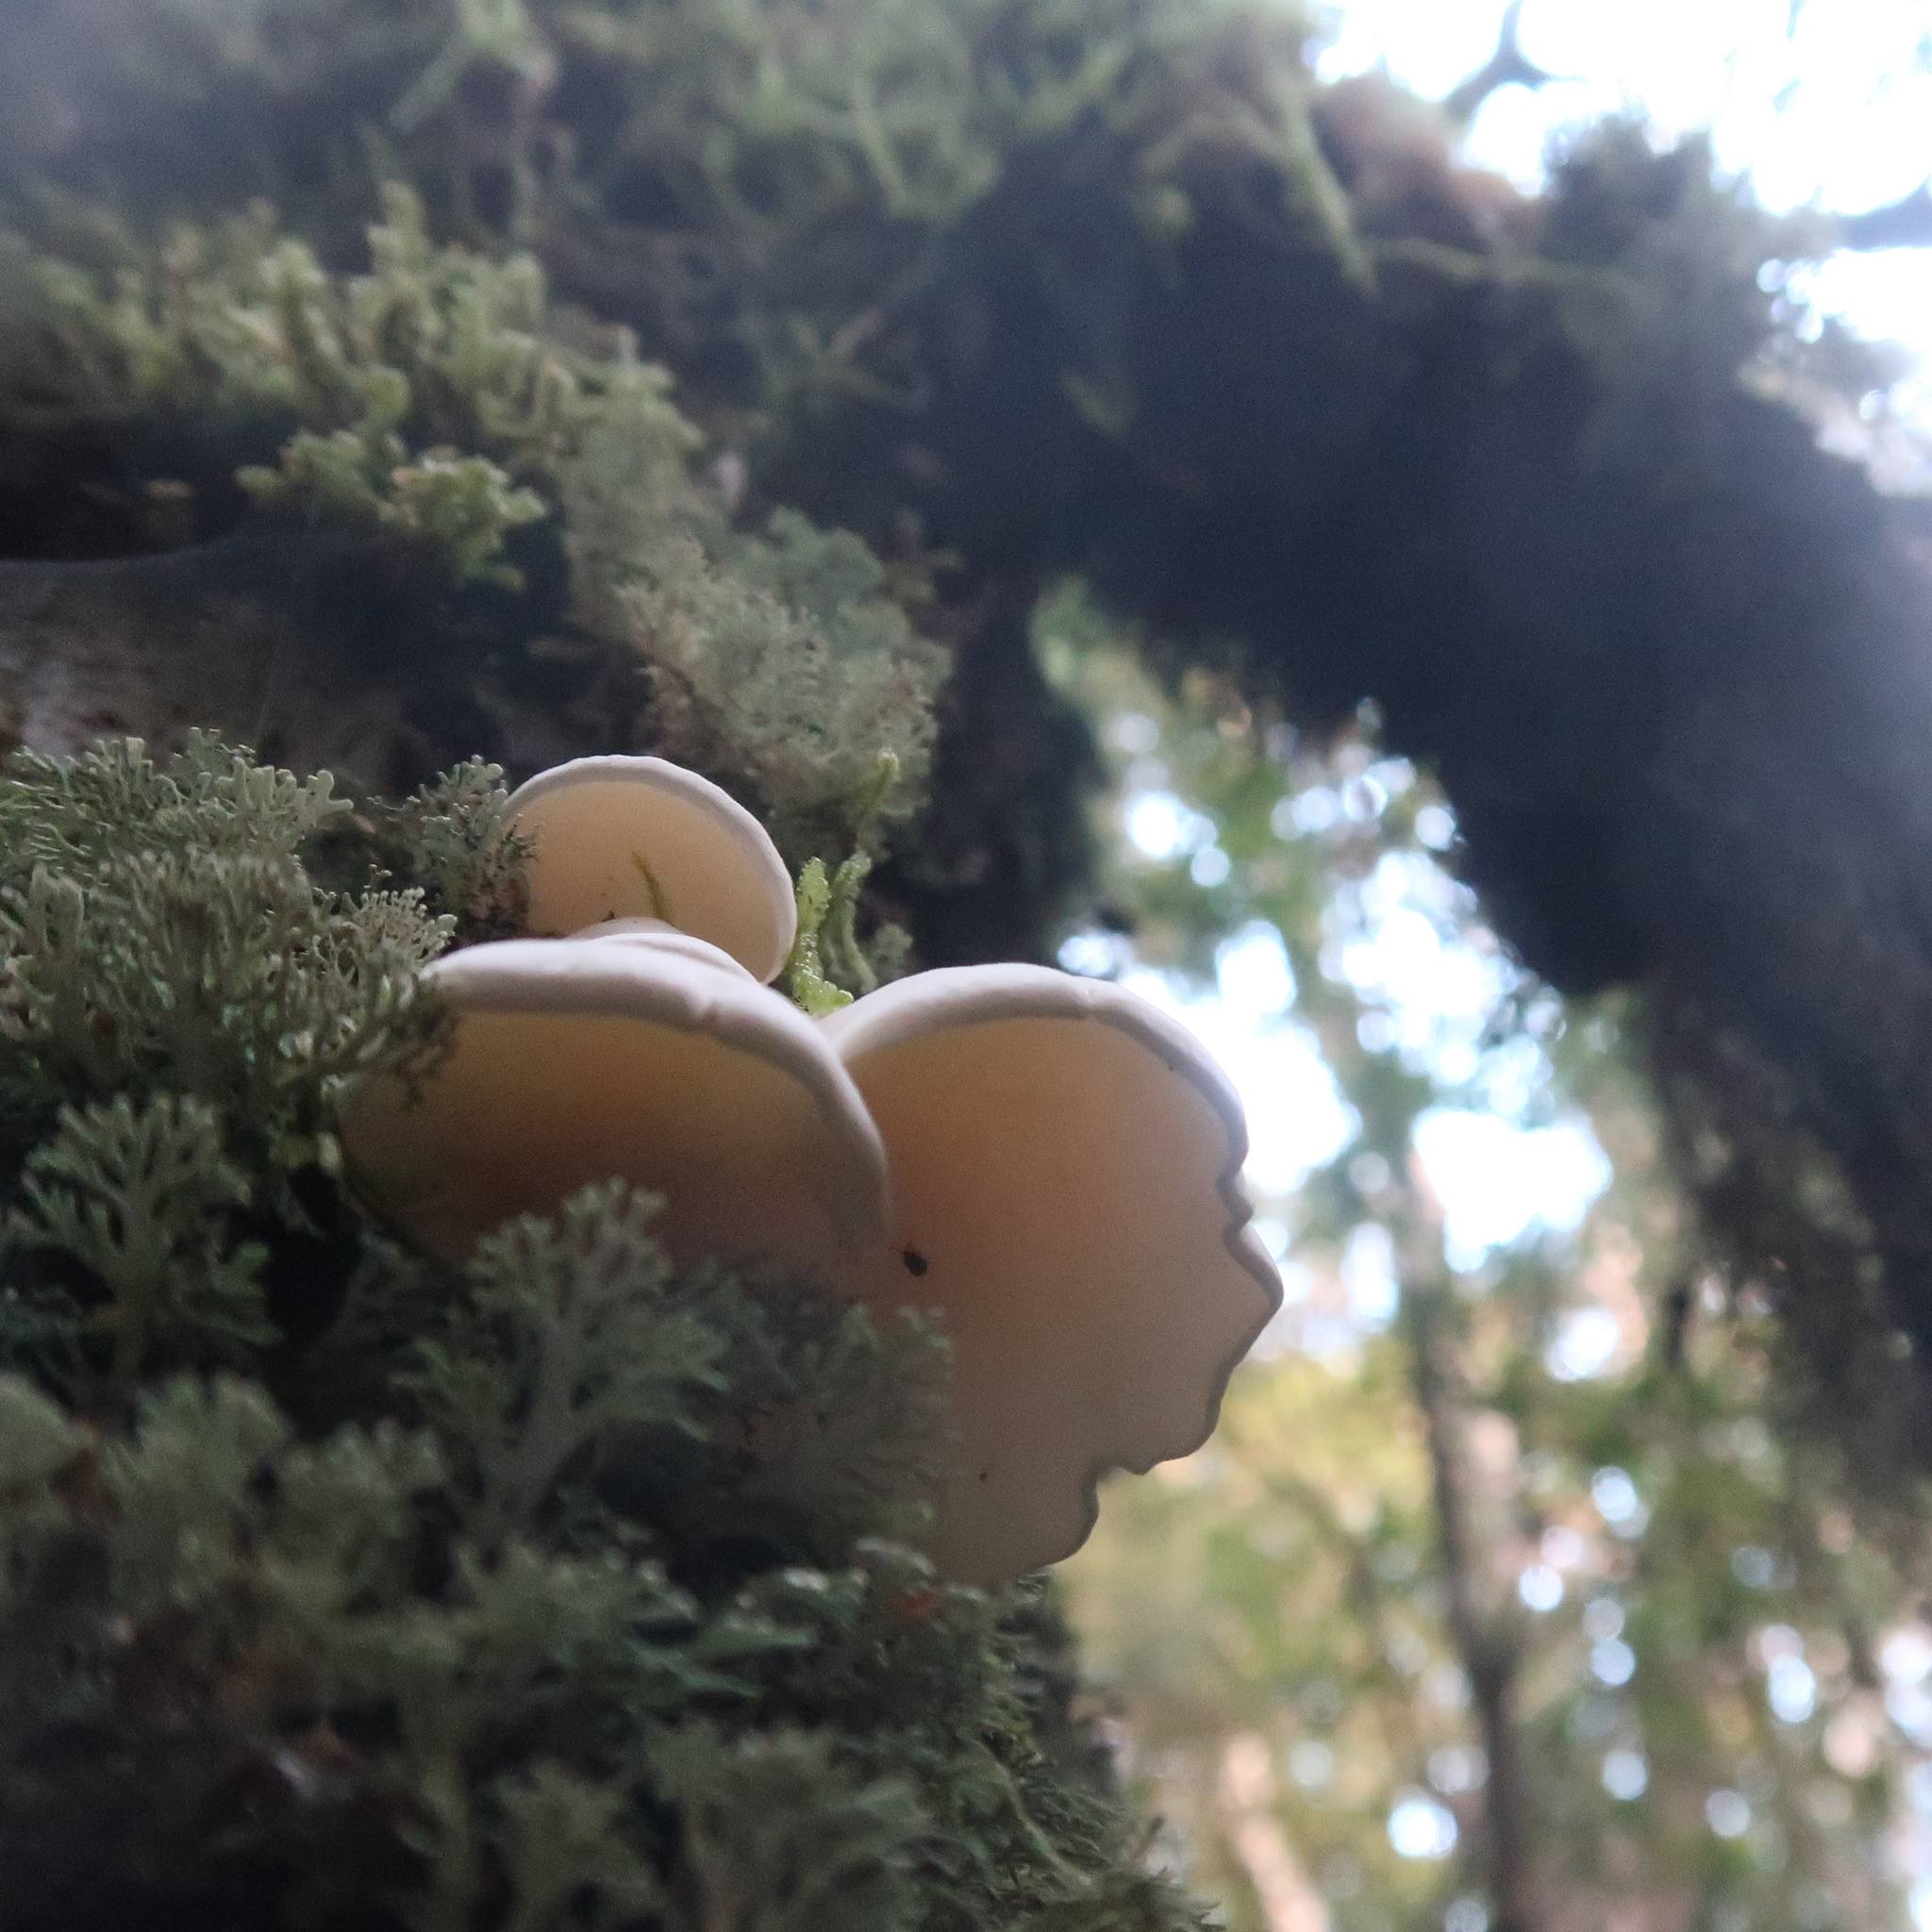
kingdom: Fungi
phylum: Basidiomycota
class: Agaricomycetes
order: Polyporales
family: Irpicaceae
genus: Gloeoporus
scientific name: Gloeoporus phlebophorus
